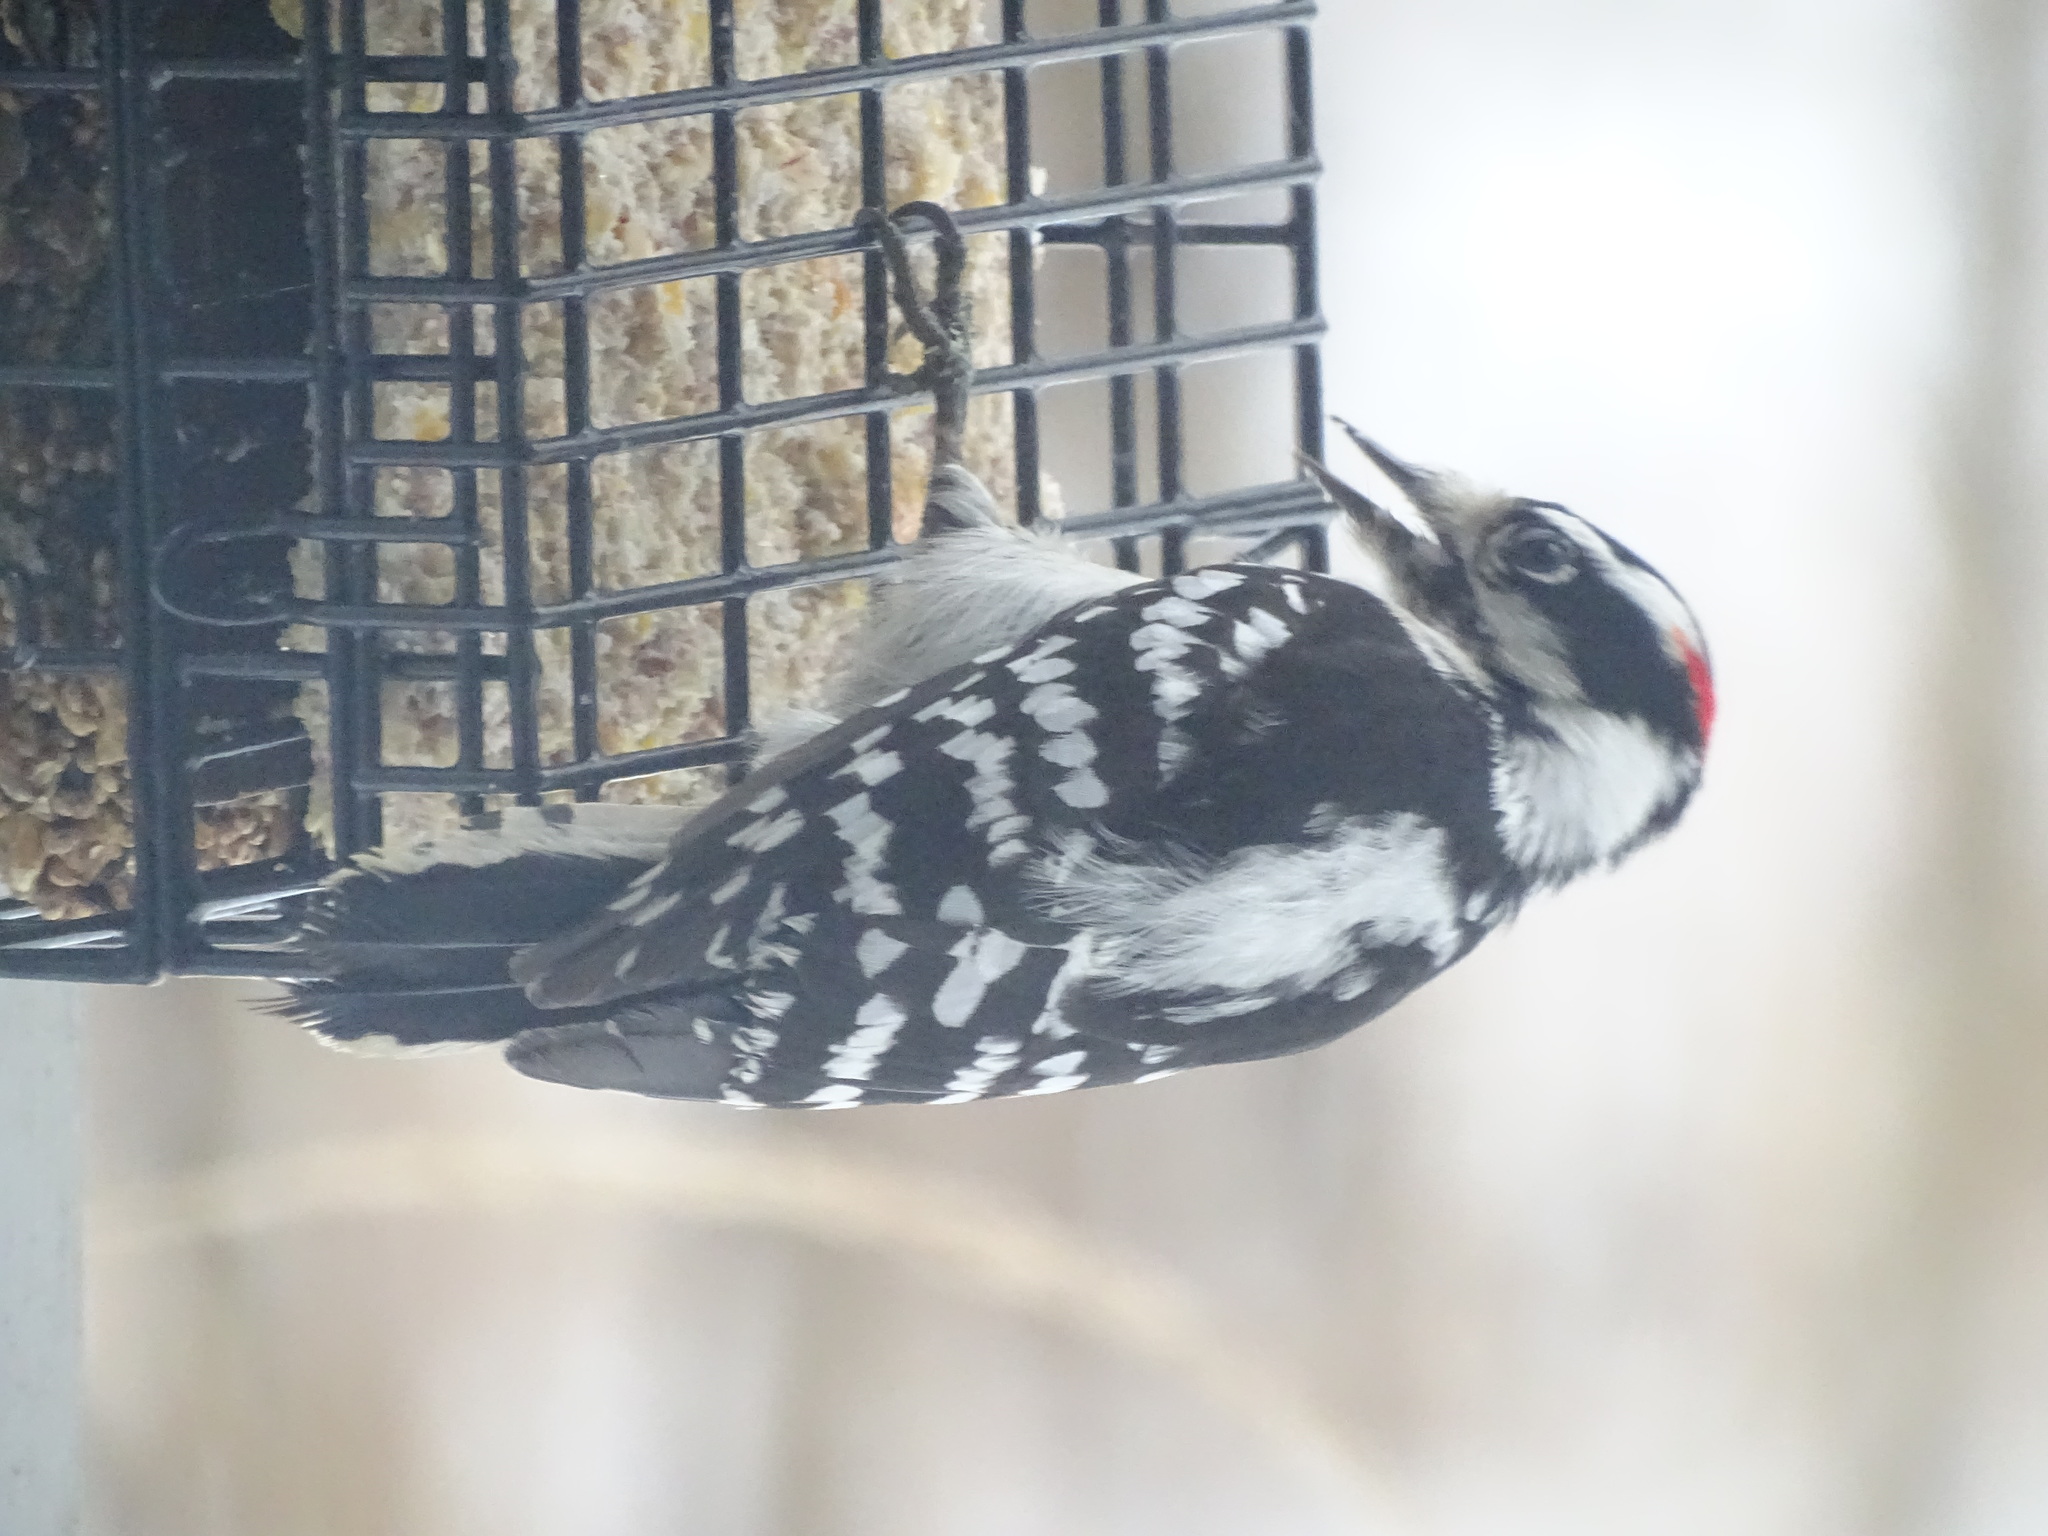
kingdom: Animalia
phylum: Chordata
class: Aves
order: Piciformes
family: Picidae
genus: Dryobates
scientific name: Dryobates pubescens
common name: Downy woodpecker
